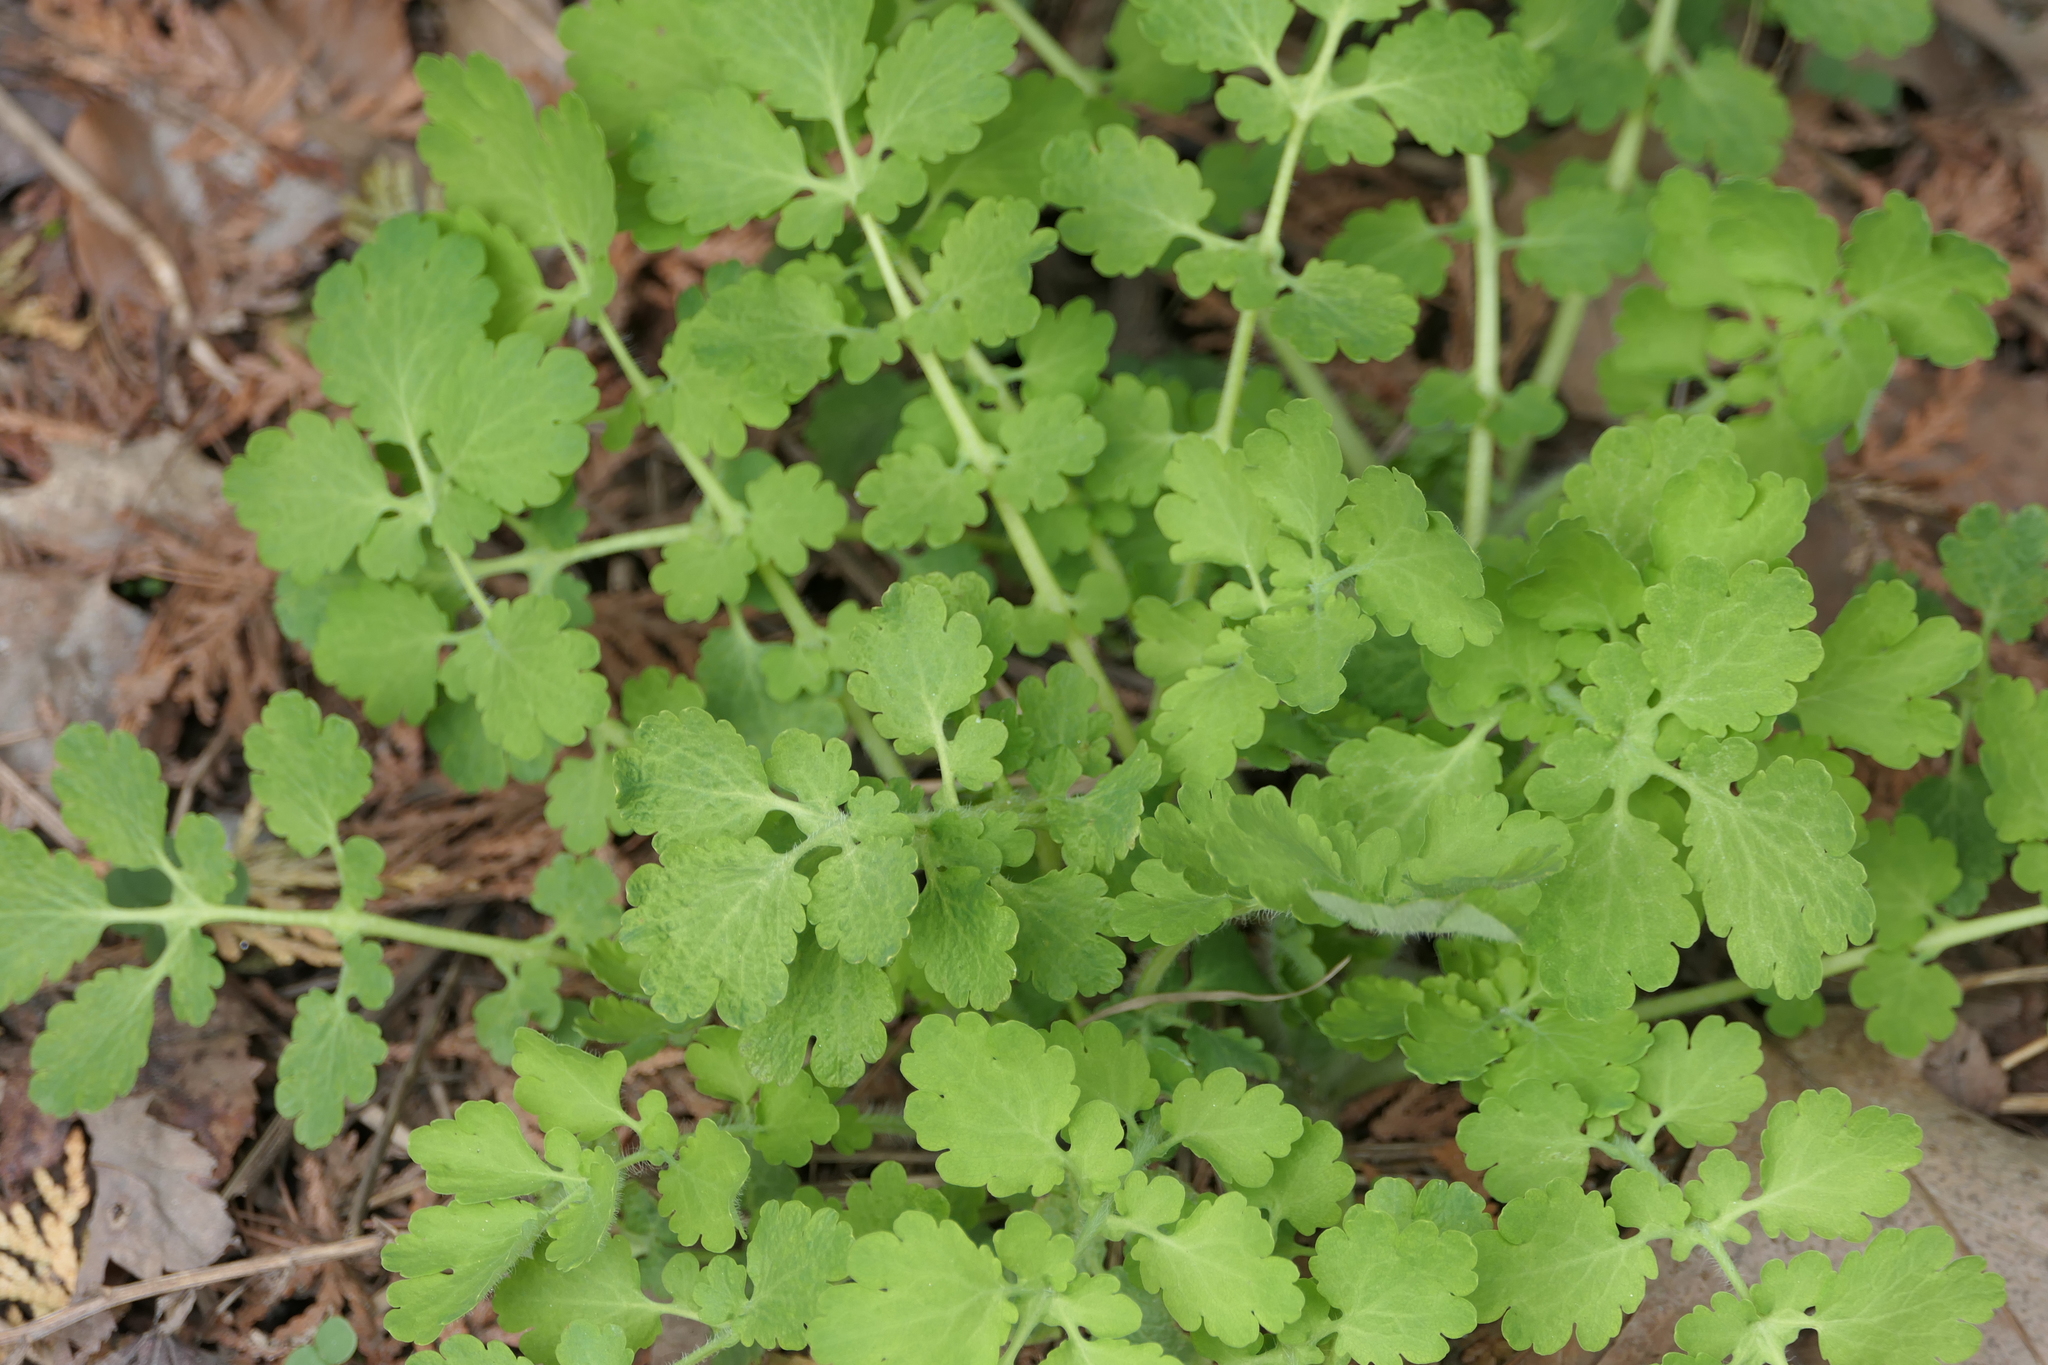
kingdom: Plantae
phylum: Tracheophyta
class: Magnoliopsida
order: Ranunculales
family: Papaveraceae
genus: Chelidonium
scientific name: Chelidonium majus
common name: Greater celandine
